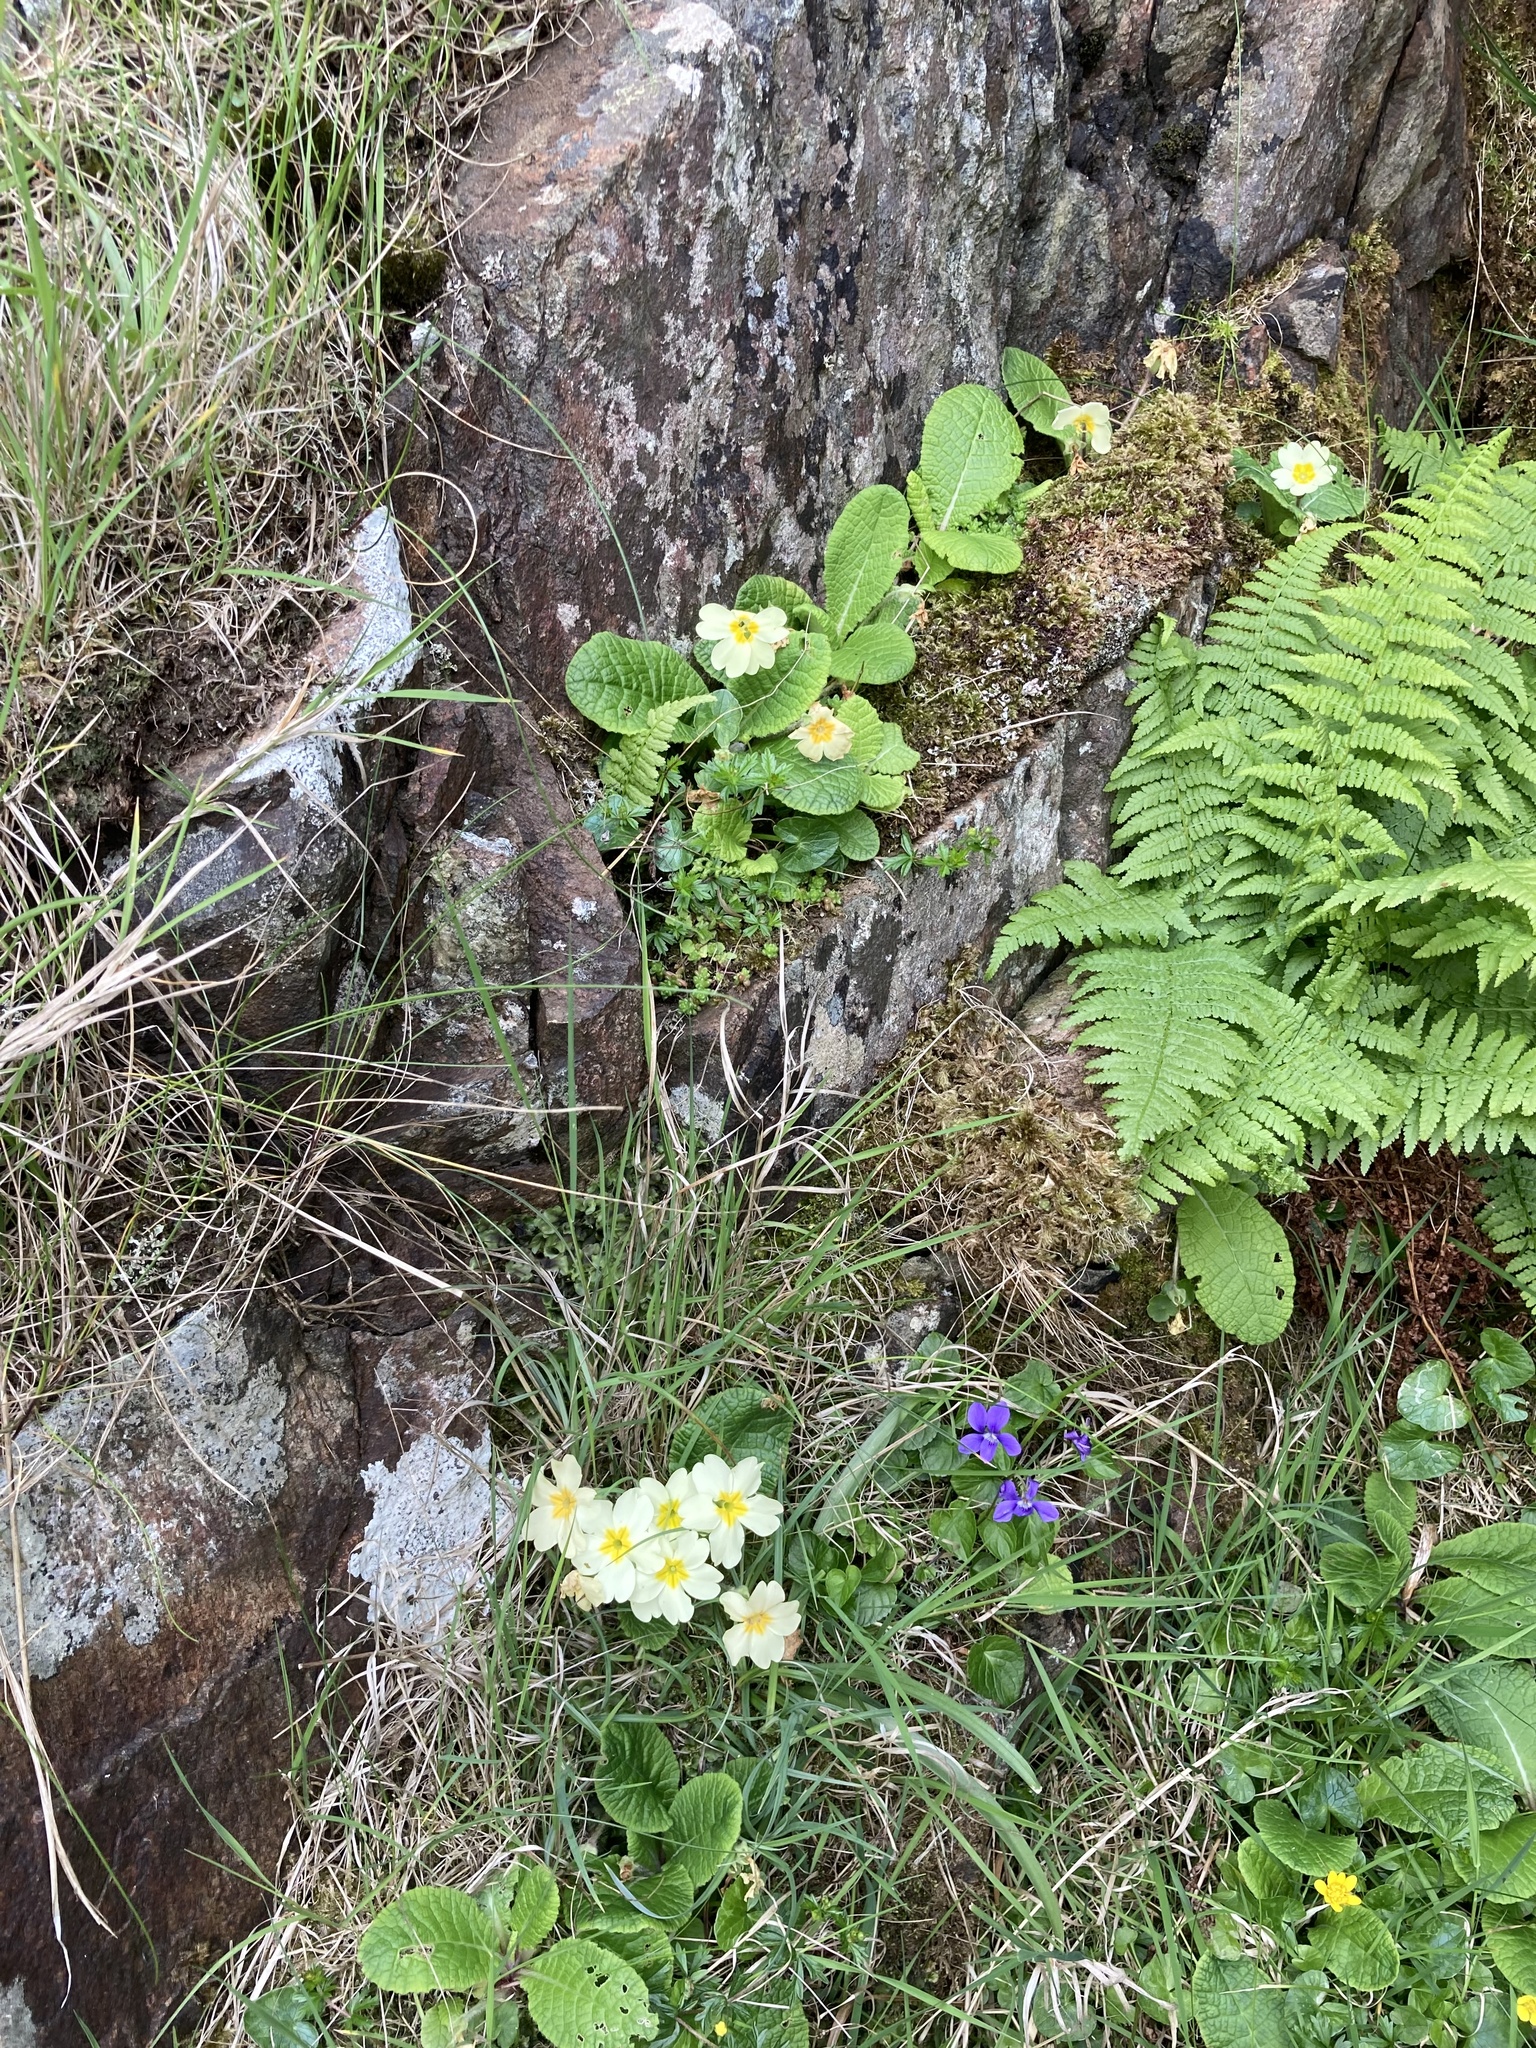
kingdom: Plantae
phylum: Tracheophyta
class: Magnoliopsida
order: Ericales
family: Primulaceae
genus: Primula
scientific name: Primula vulgaris
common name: Primrose
